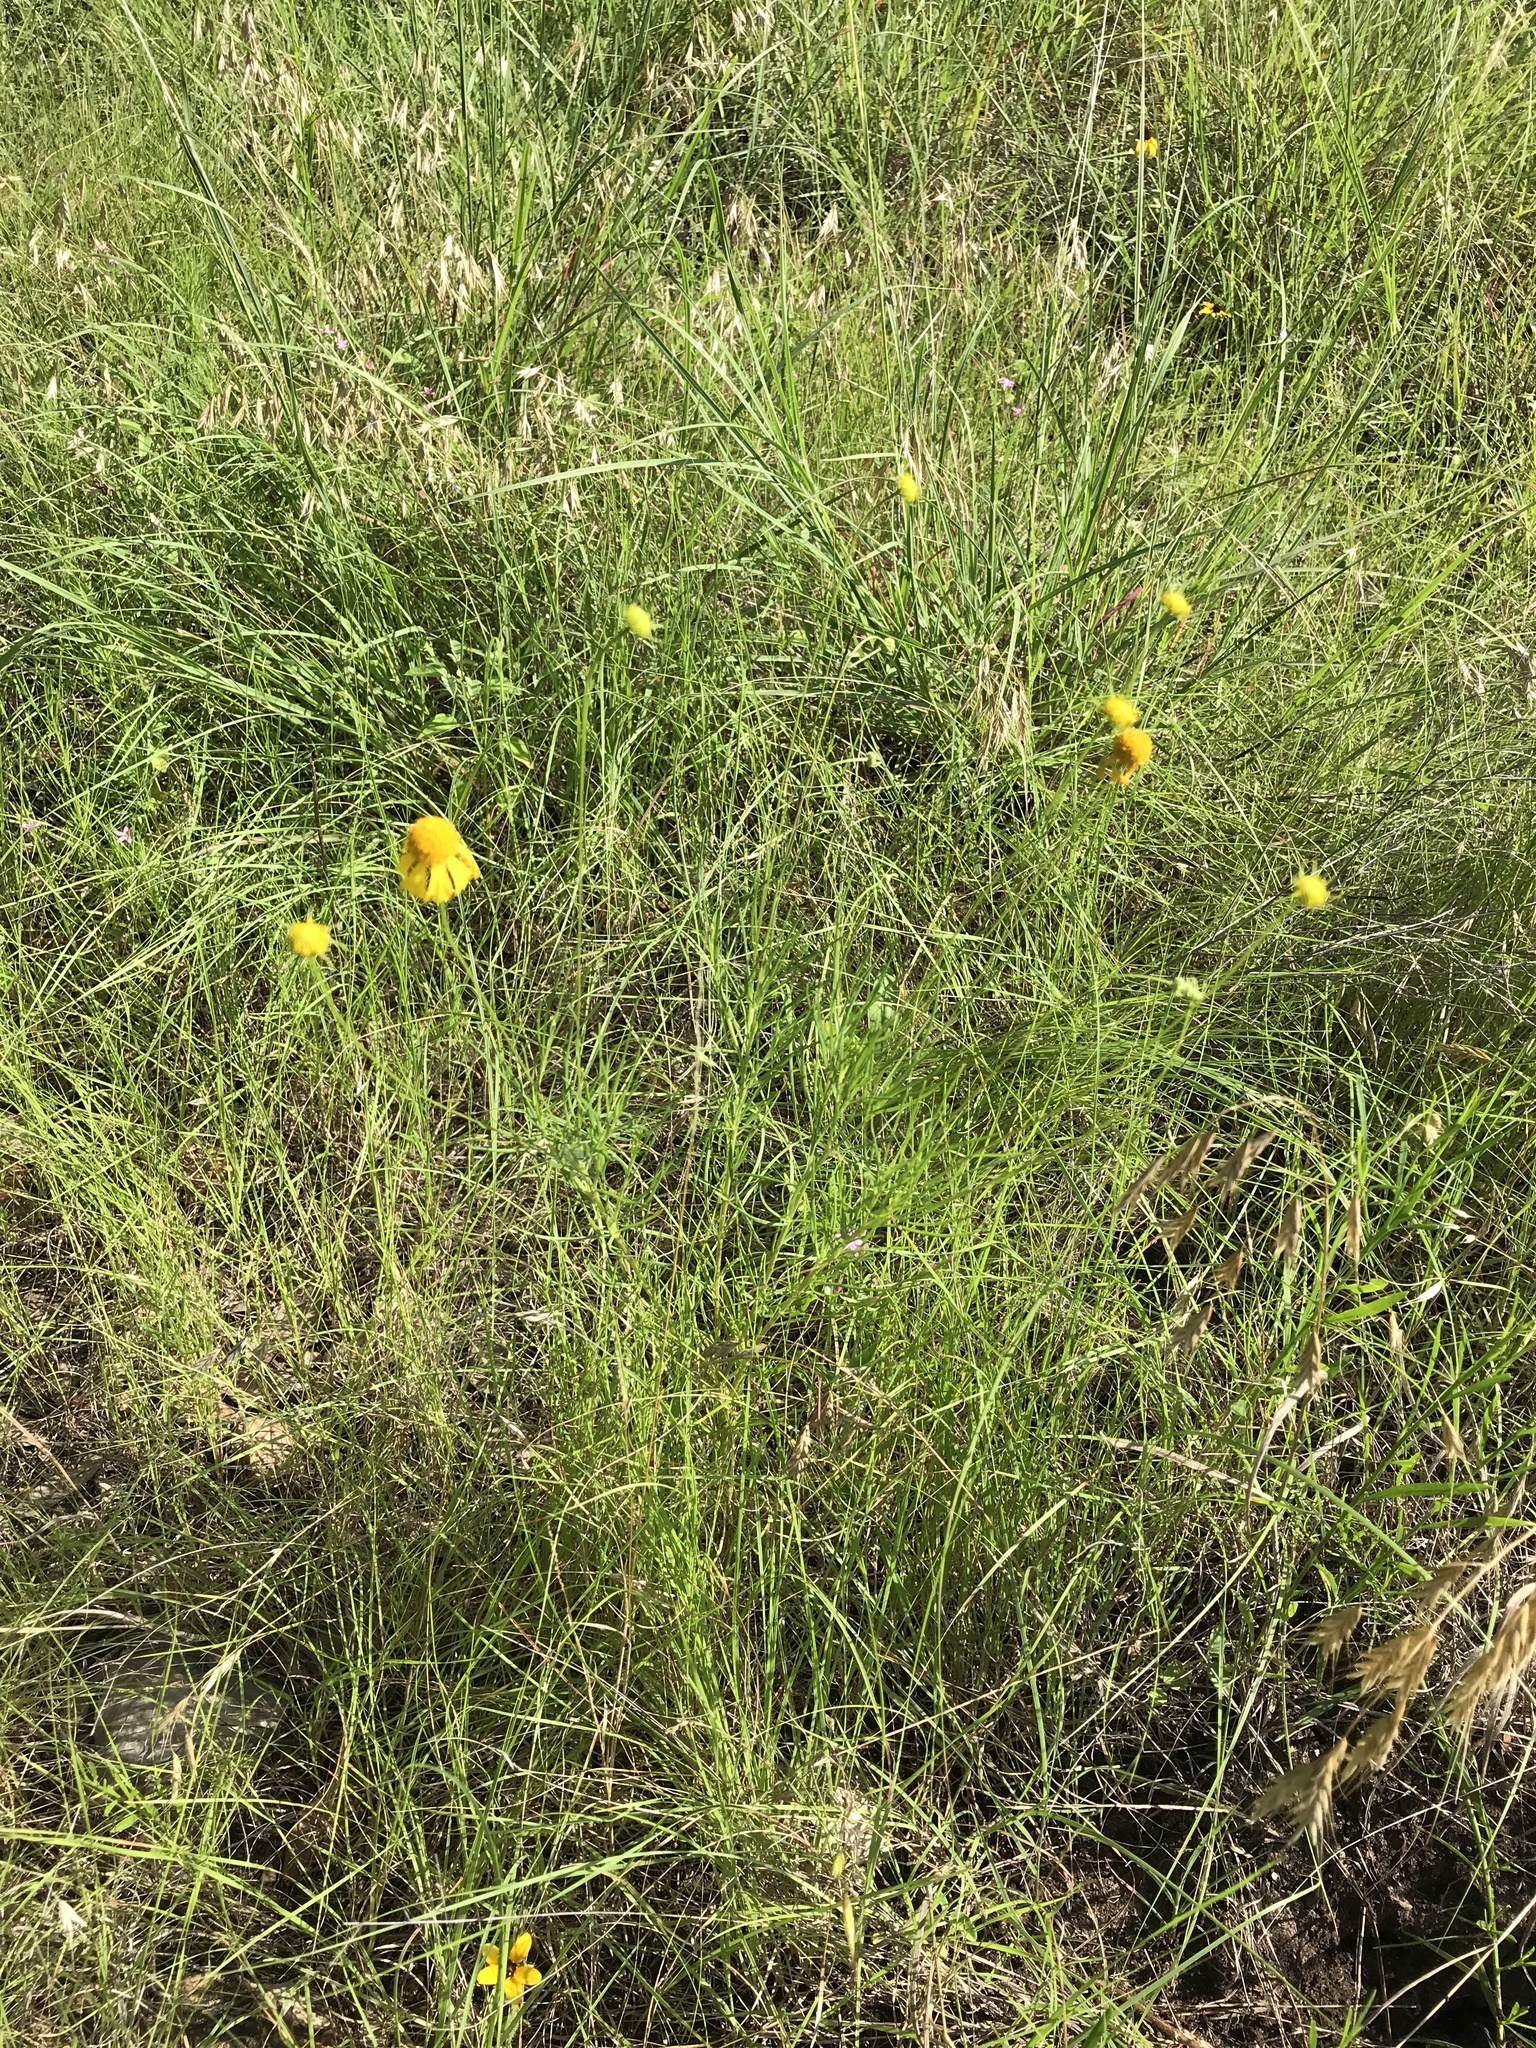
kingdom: Plantae
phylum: Tracheophyta
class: Magnoliopsida
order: Asterales
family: Asteraceae
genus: Helenium
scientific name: Helenium amarum
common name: Bitter sneezeweed
